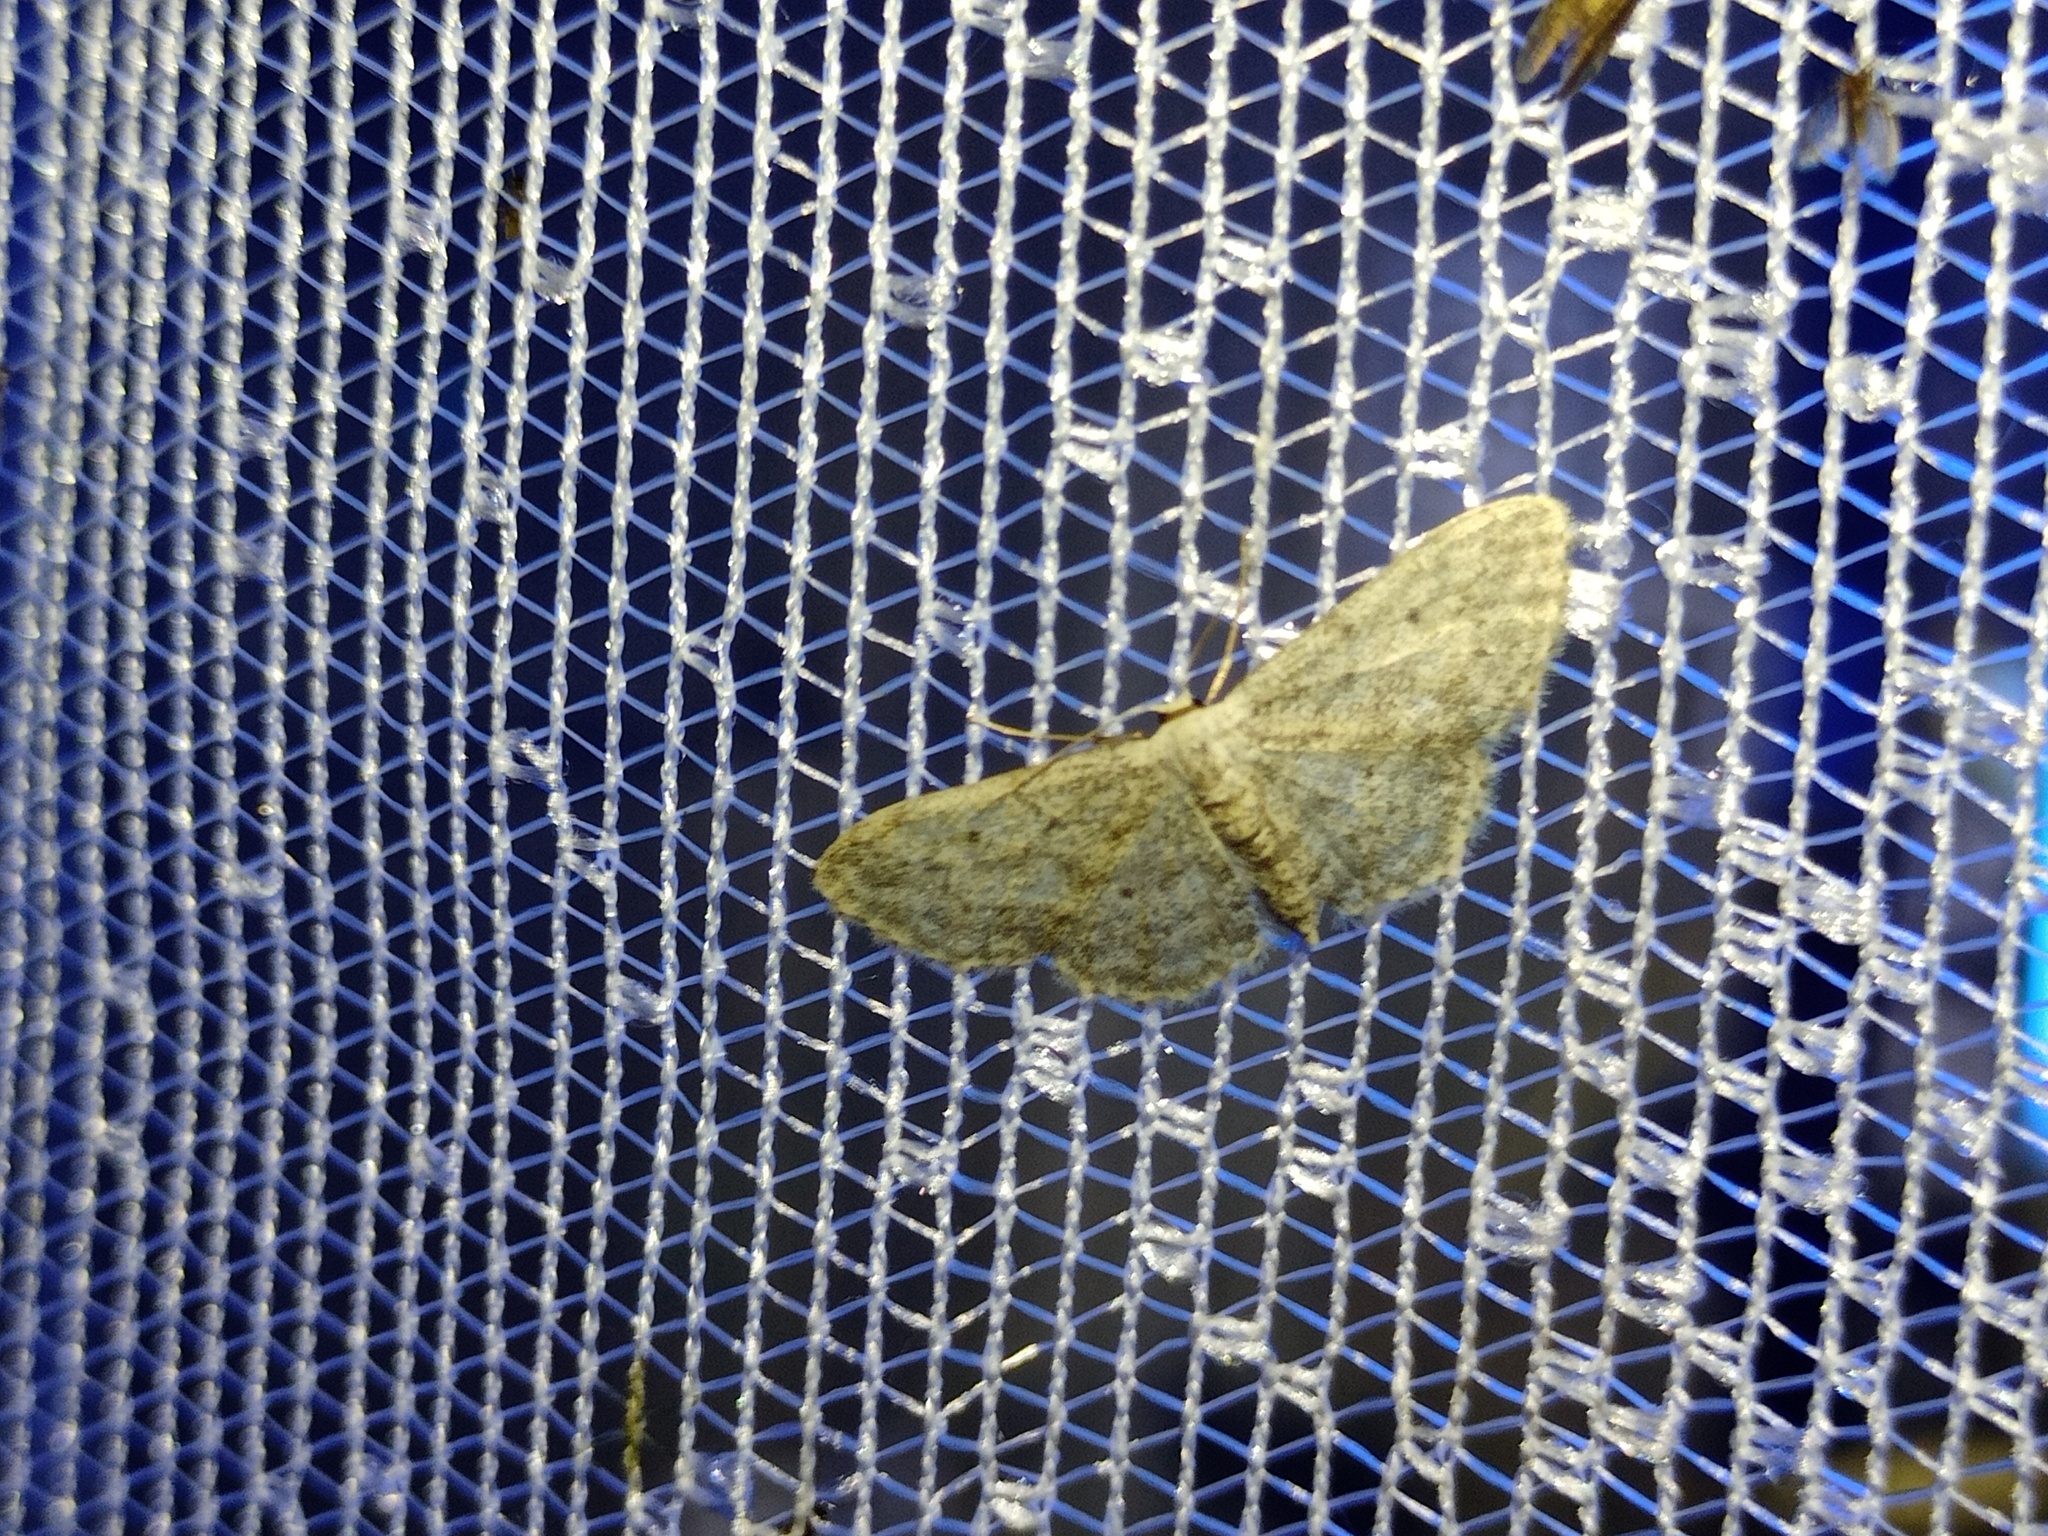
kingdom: Animalia
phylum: Arthropoda
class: Insecta
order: Lepidoptera
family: Geometridae
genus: Idaea
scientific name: Idaea seriata
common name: Small dusty wave
